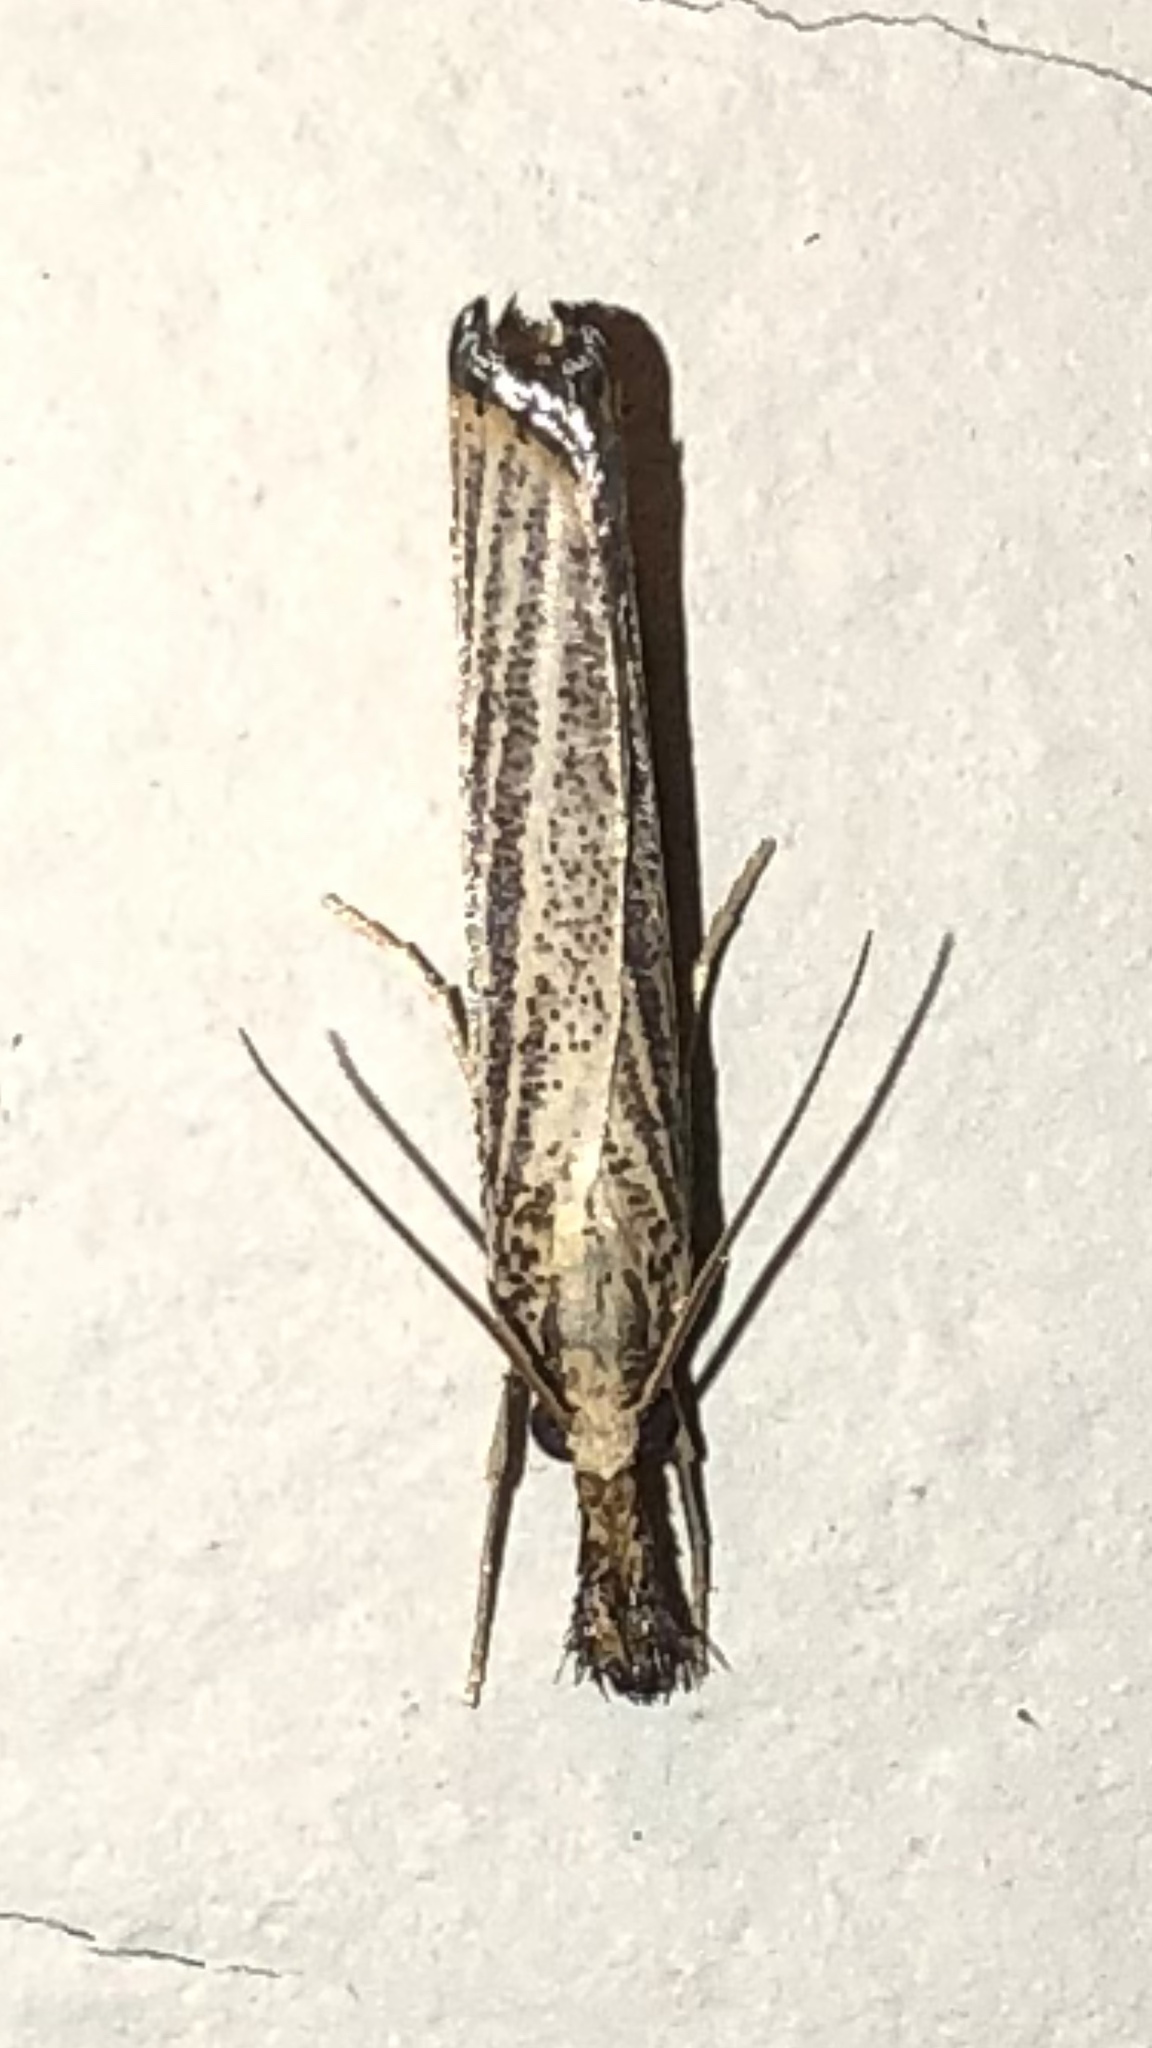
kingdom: Animalia
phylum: Arthropoda
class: Insecta
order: Lepidoptera
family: Crambidae
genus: Agriphila
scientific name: Agriphila vulgivagellus
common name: Vagabond crambus moth
